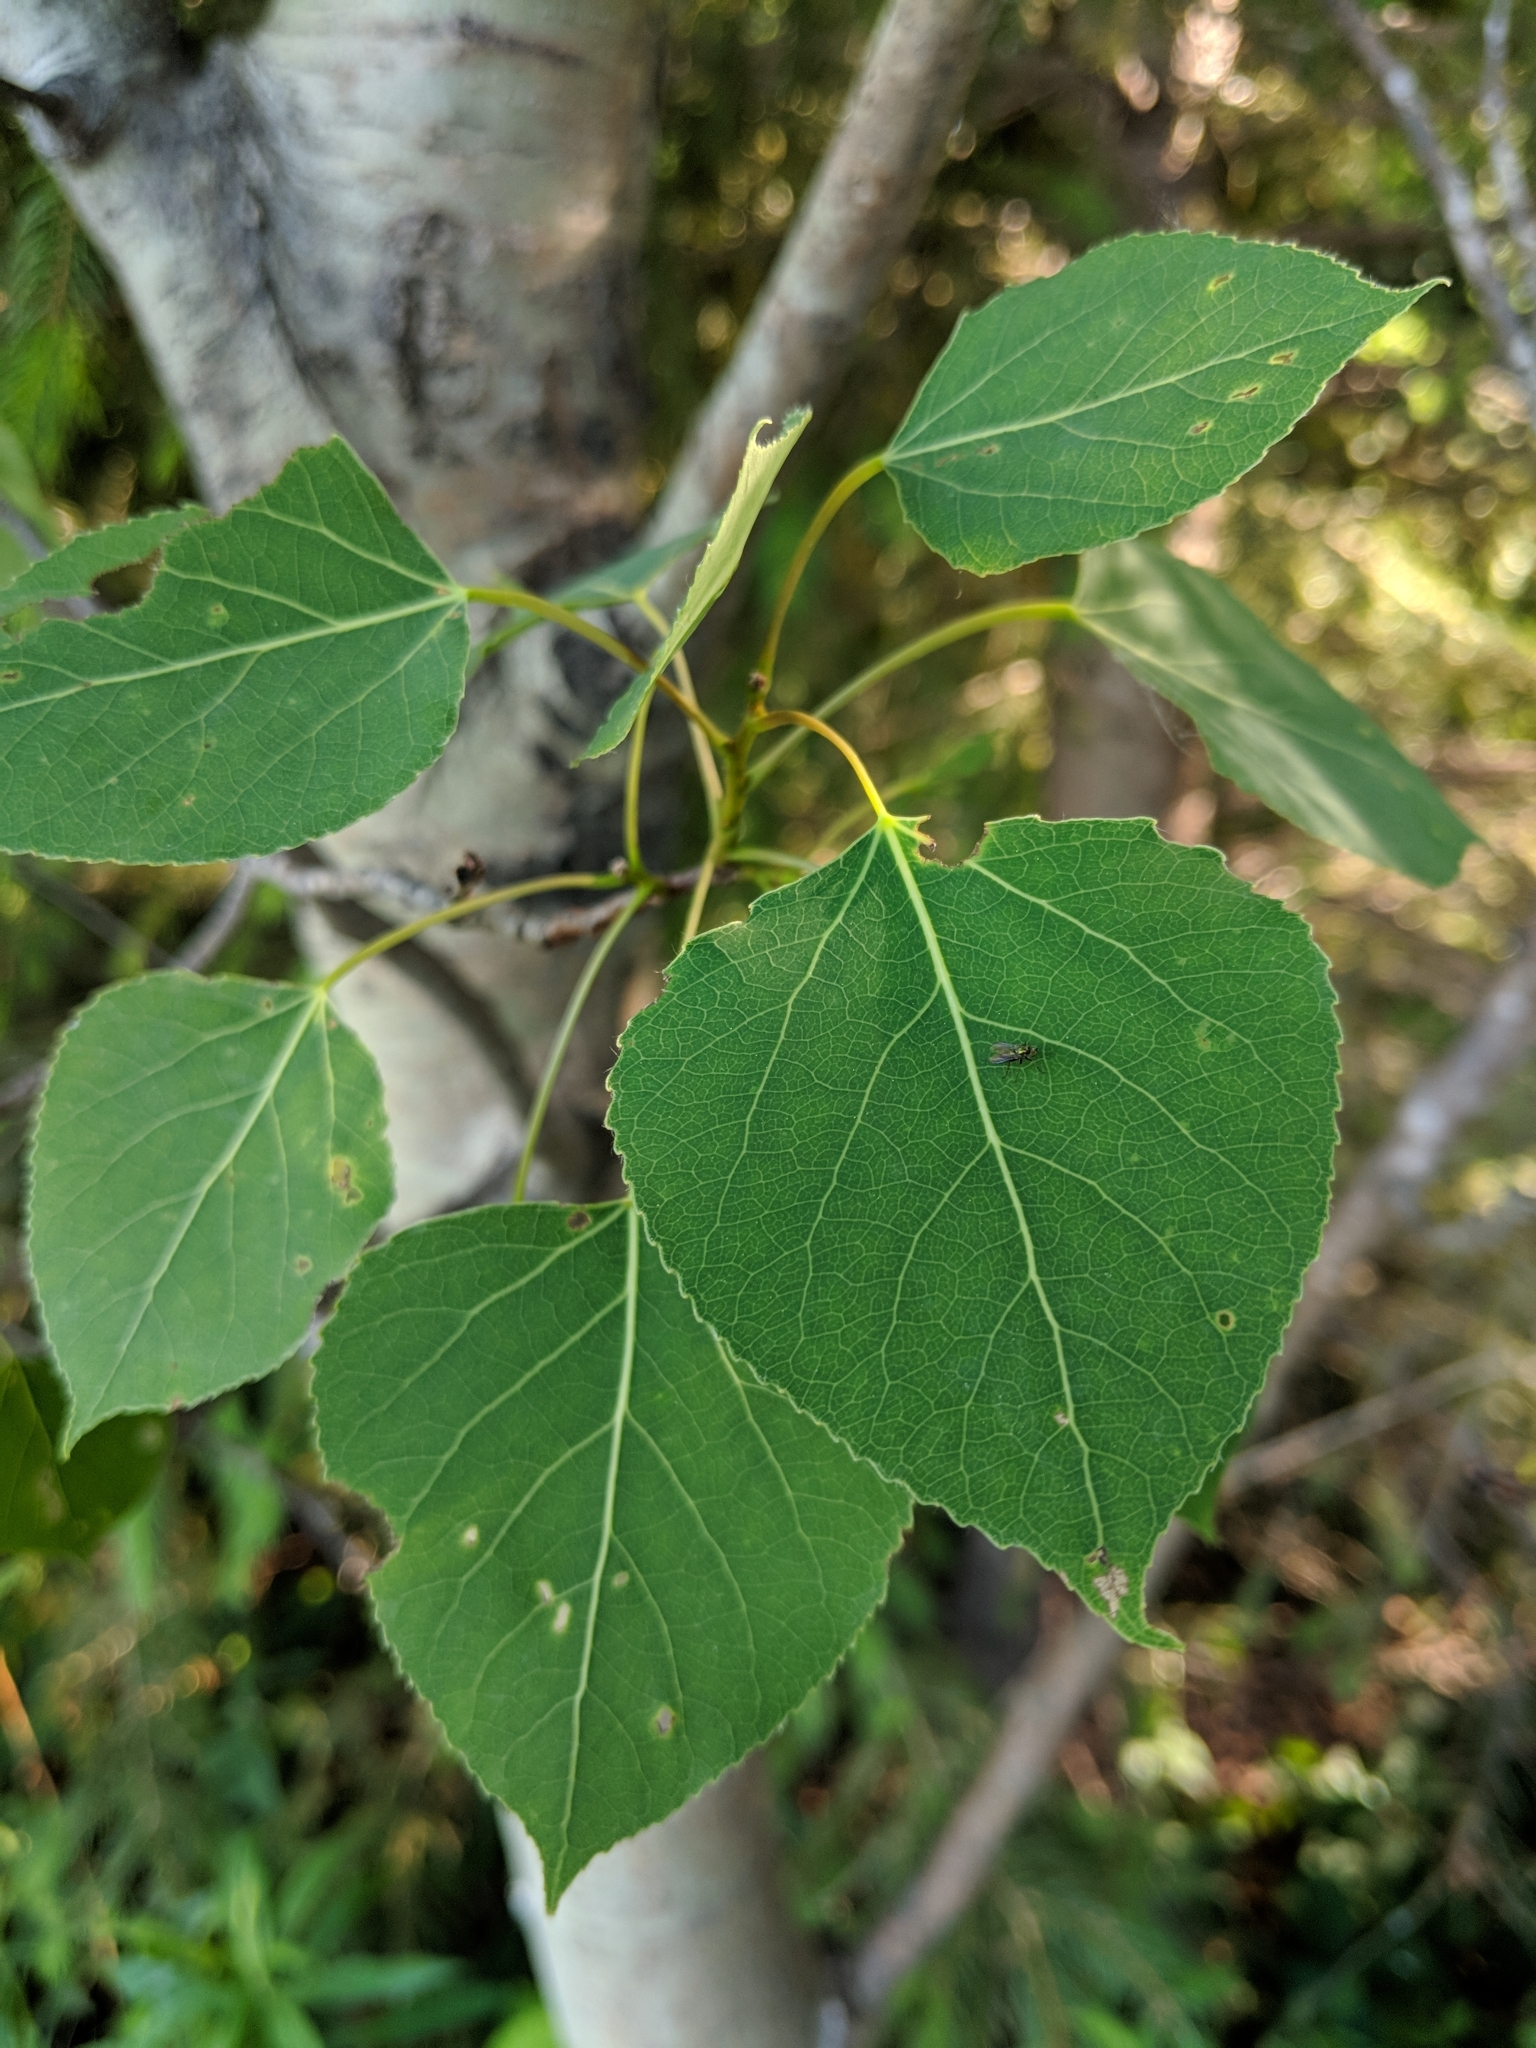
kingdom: Plantae
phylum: Tracheophyta
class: Magnoliopsida
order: Malpighiales
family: Salicaceae
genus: Populus
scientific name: Populus tremuloides
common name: Quaking aspen
